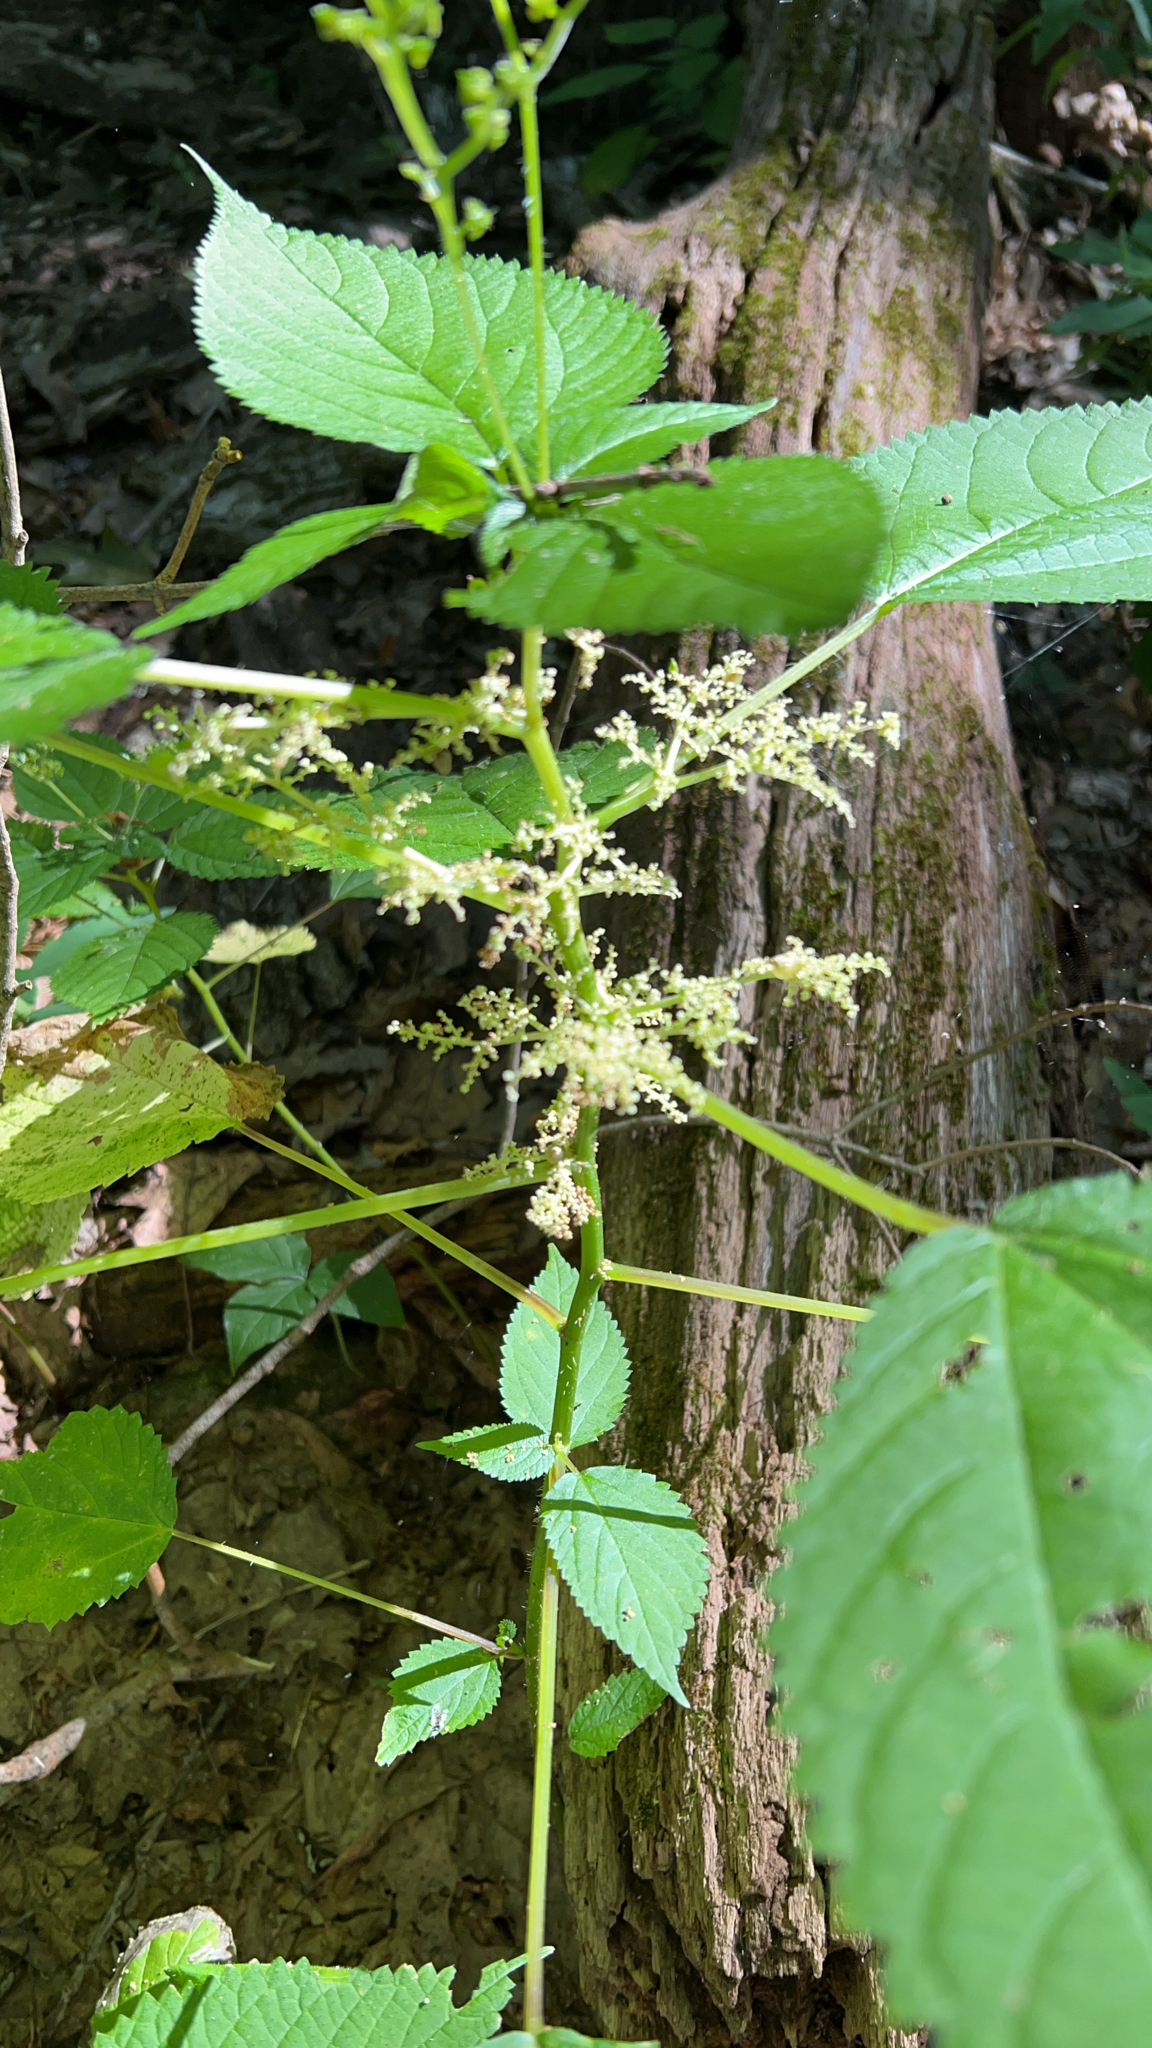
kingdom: Plantae
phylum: Tracheophyta
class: Magnoliopsida
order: Rosales
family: Urticaceae
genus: Laportea
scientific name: Laportea canadensis
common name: Canada nettle
